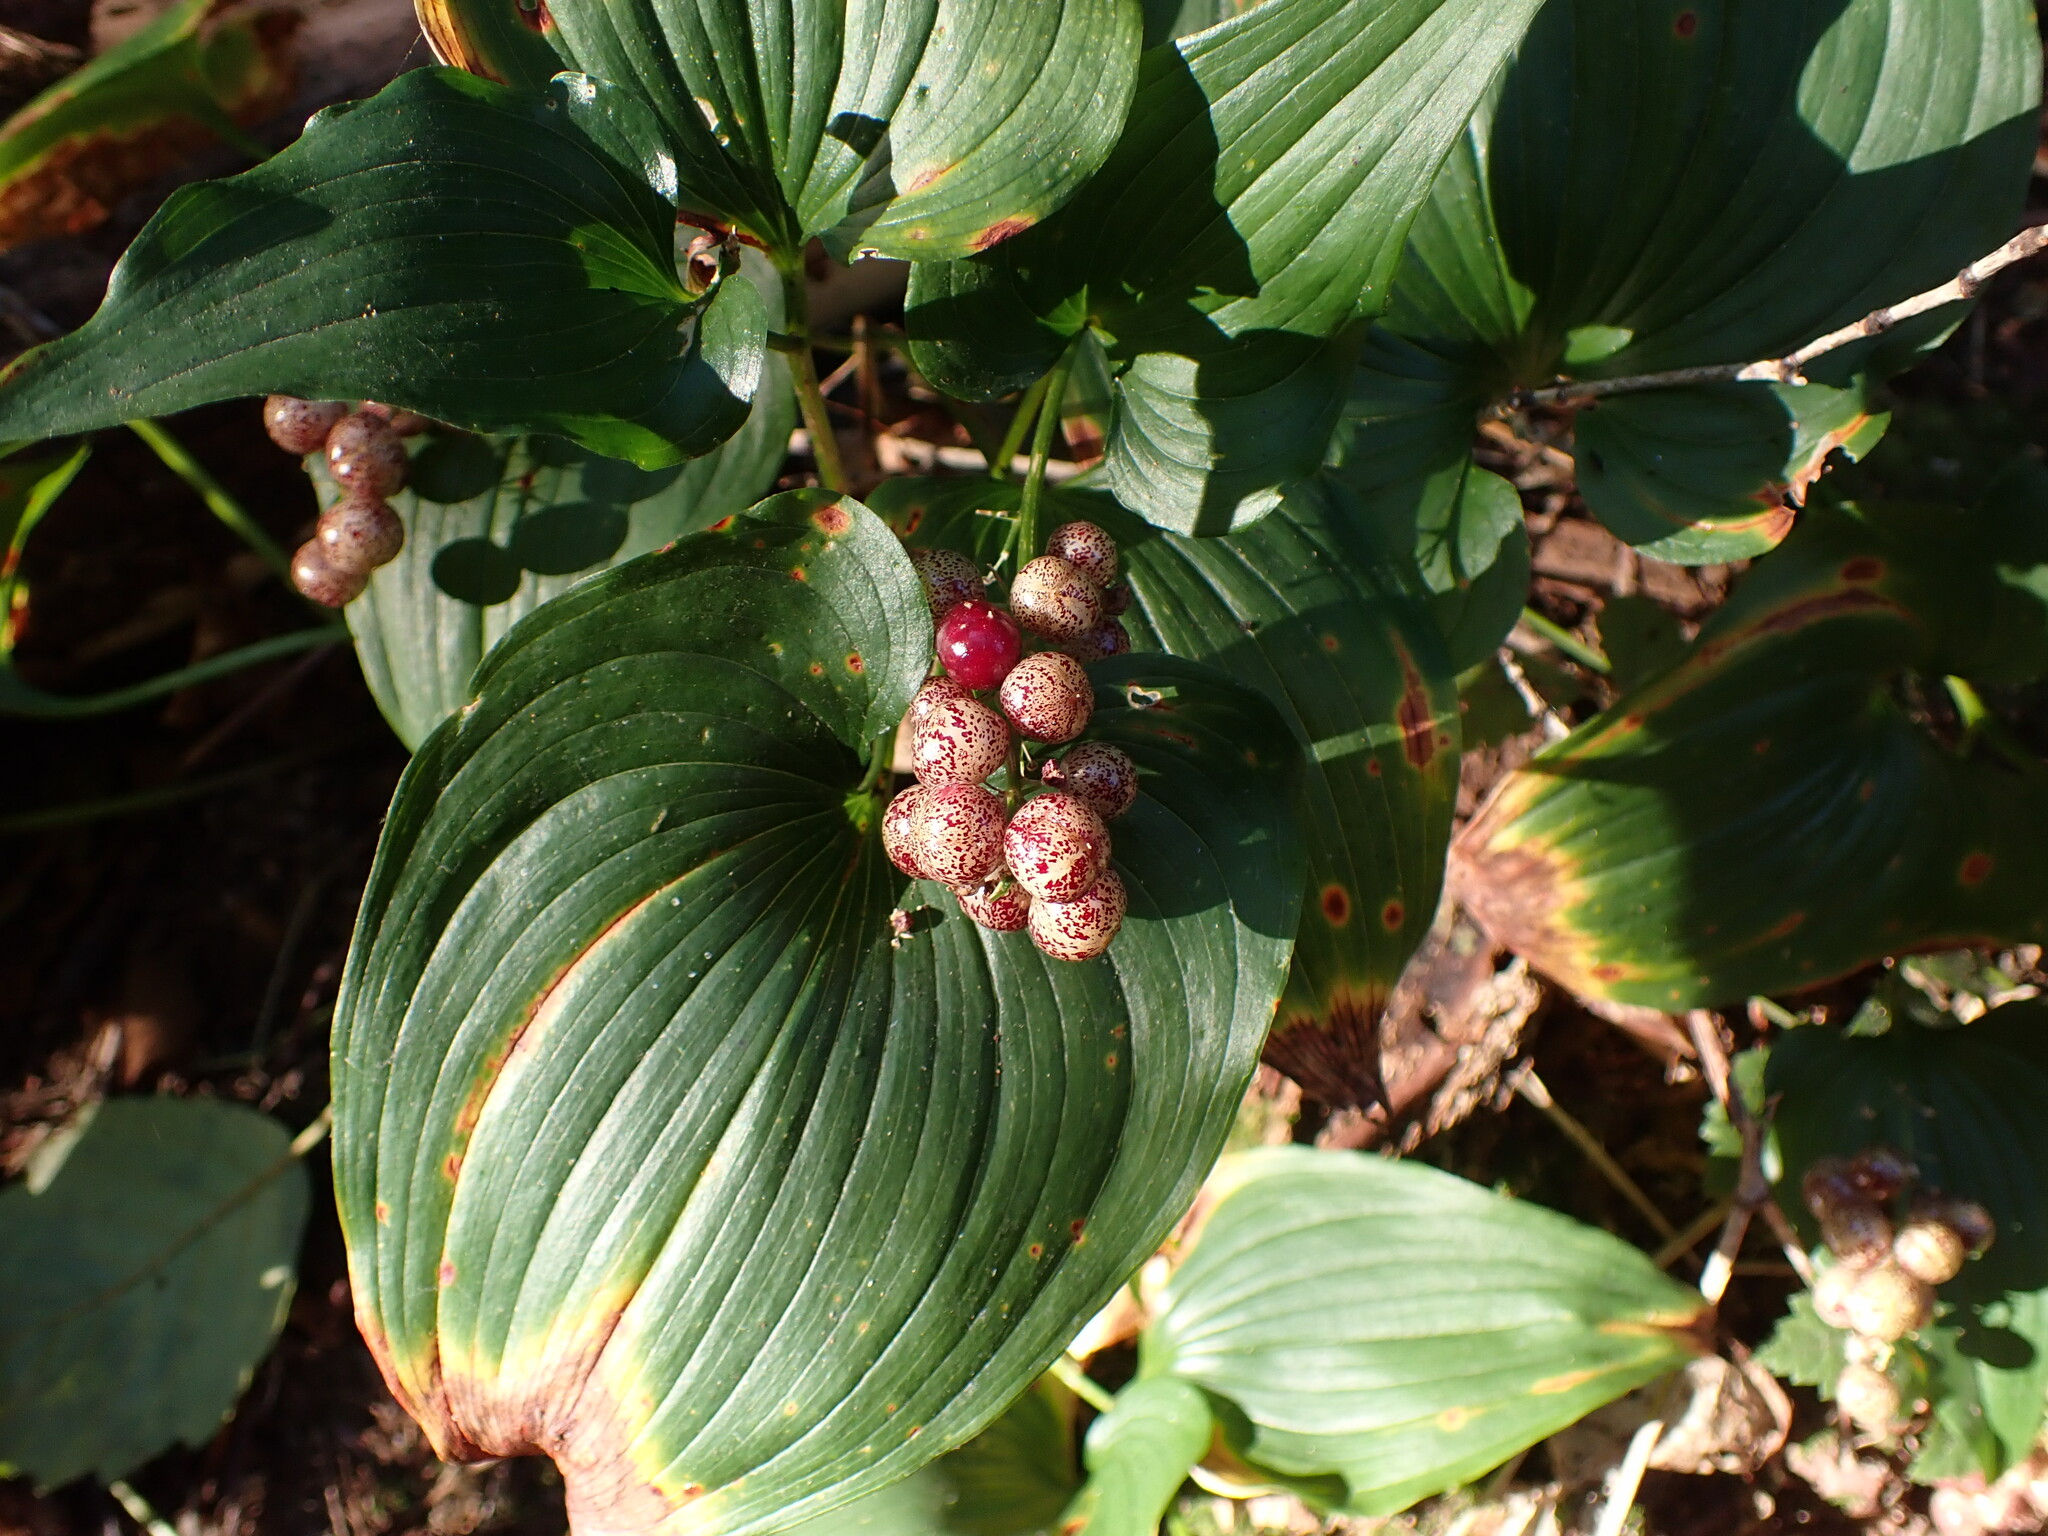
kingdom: Plantae
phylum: Tracheophyta
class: Liliopsida
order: Asparagales
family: Asparagaceae
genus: Maianthemum
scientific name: Maianthemum dilatatum
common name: False lily-of-the-valley
